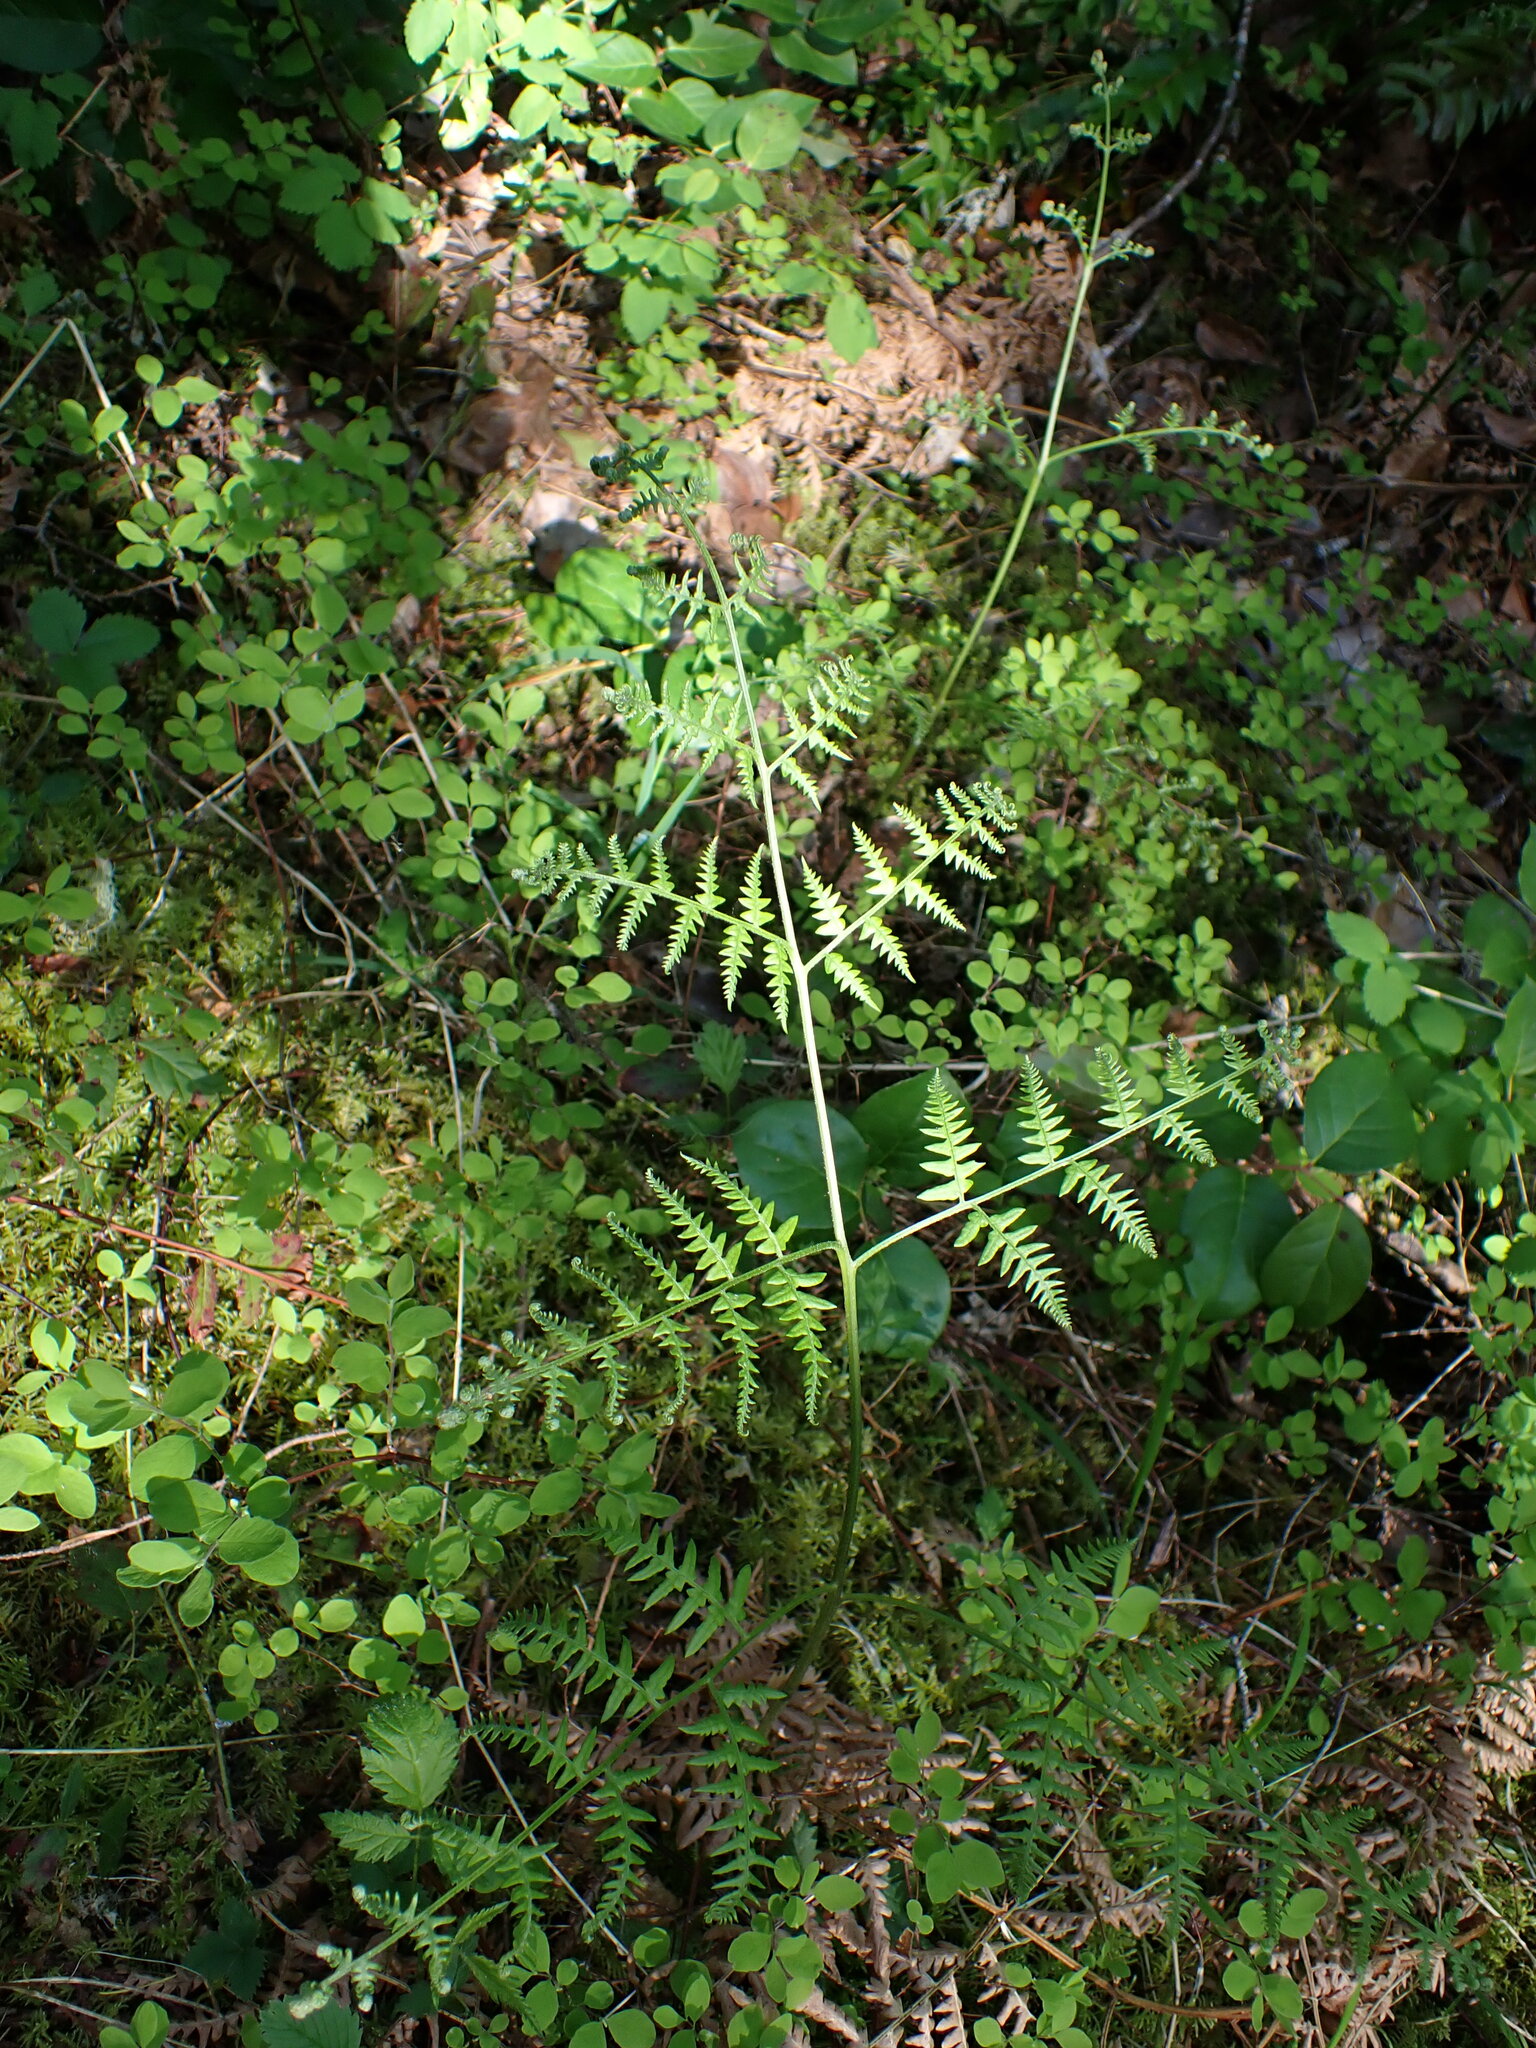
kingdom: Plantae
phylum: Tracheophyta
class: Polypodiopsida
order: Polypodiales
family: Dennstaedtiaceae
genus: Pteridium
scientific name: Pteridium aquilinum
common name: Bracken
